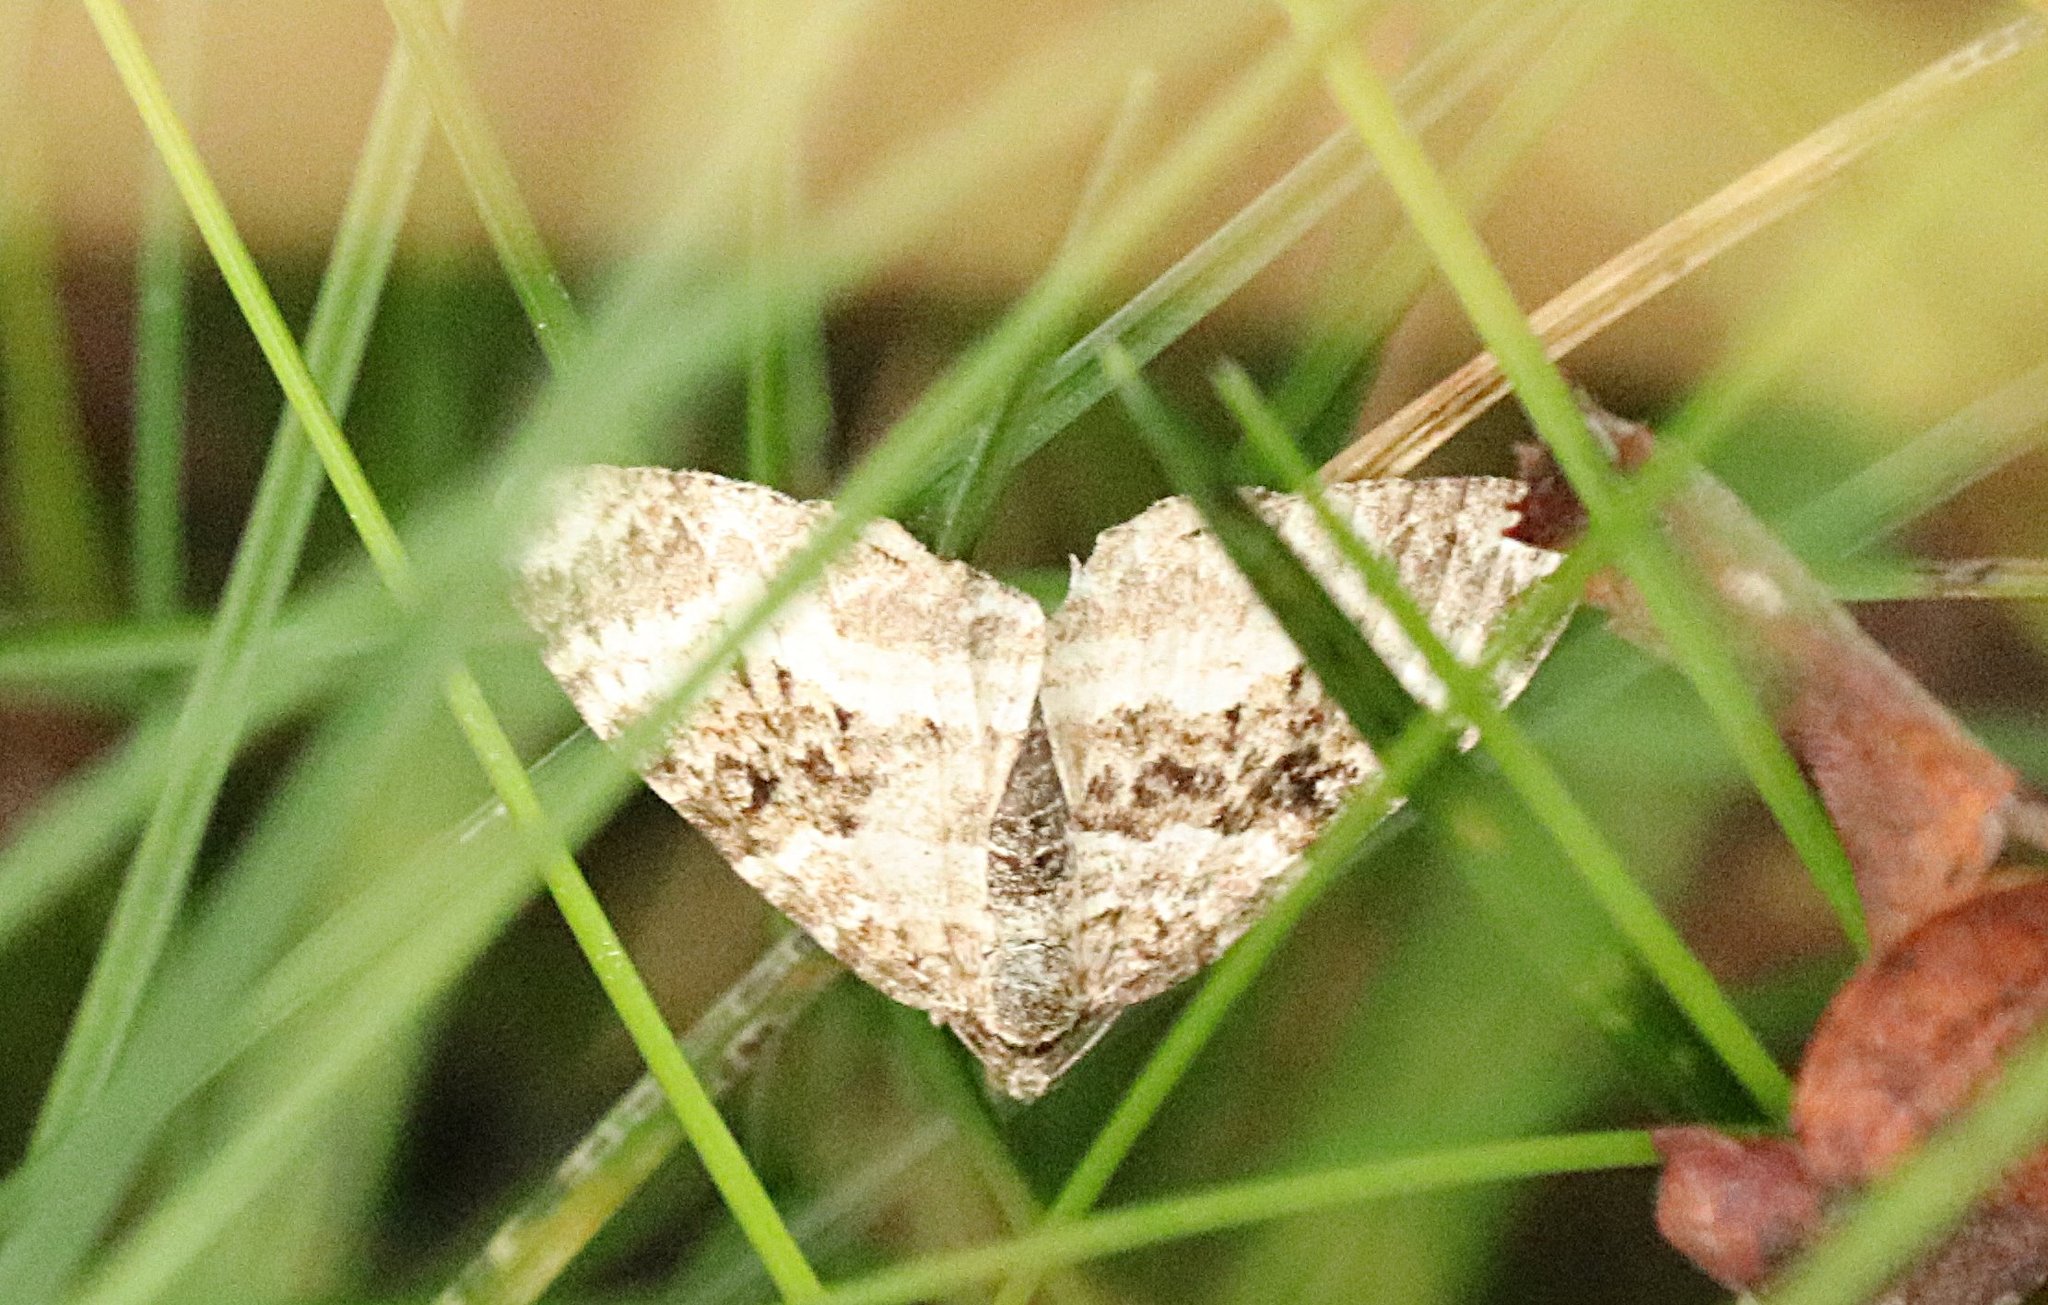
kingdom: Animalia
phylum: Arthropoda
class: Insecta
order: Lepidoptera
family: Geometridae
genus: Epirrhoe
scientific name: Epirrhoe alternata
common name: Common carpet
